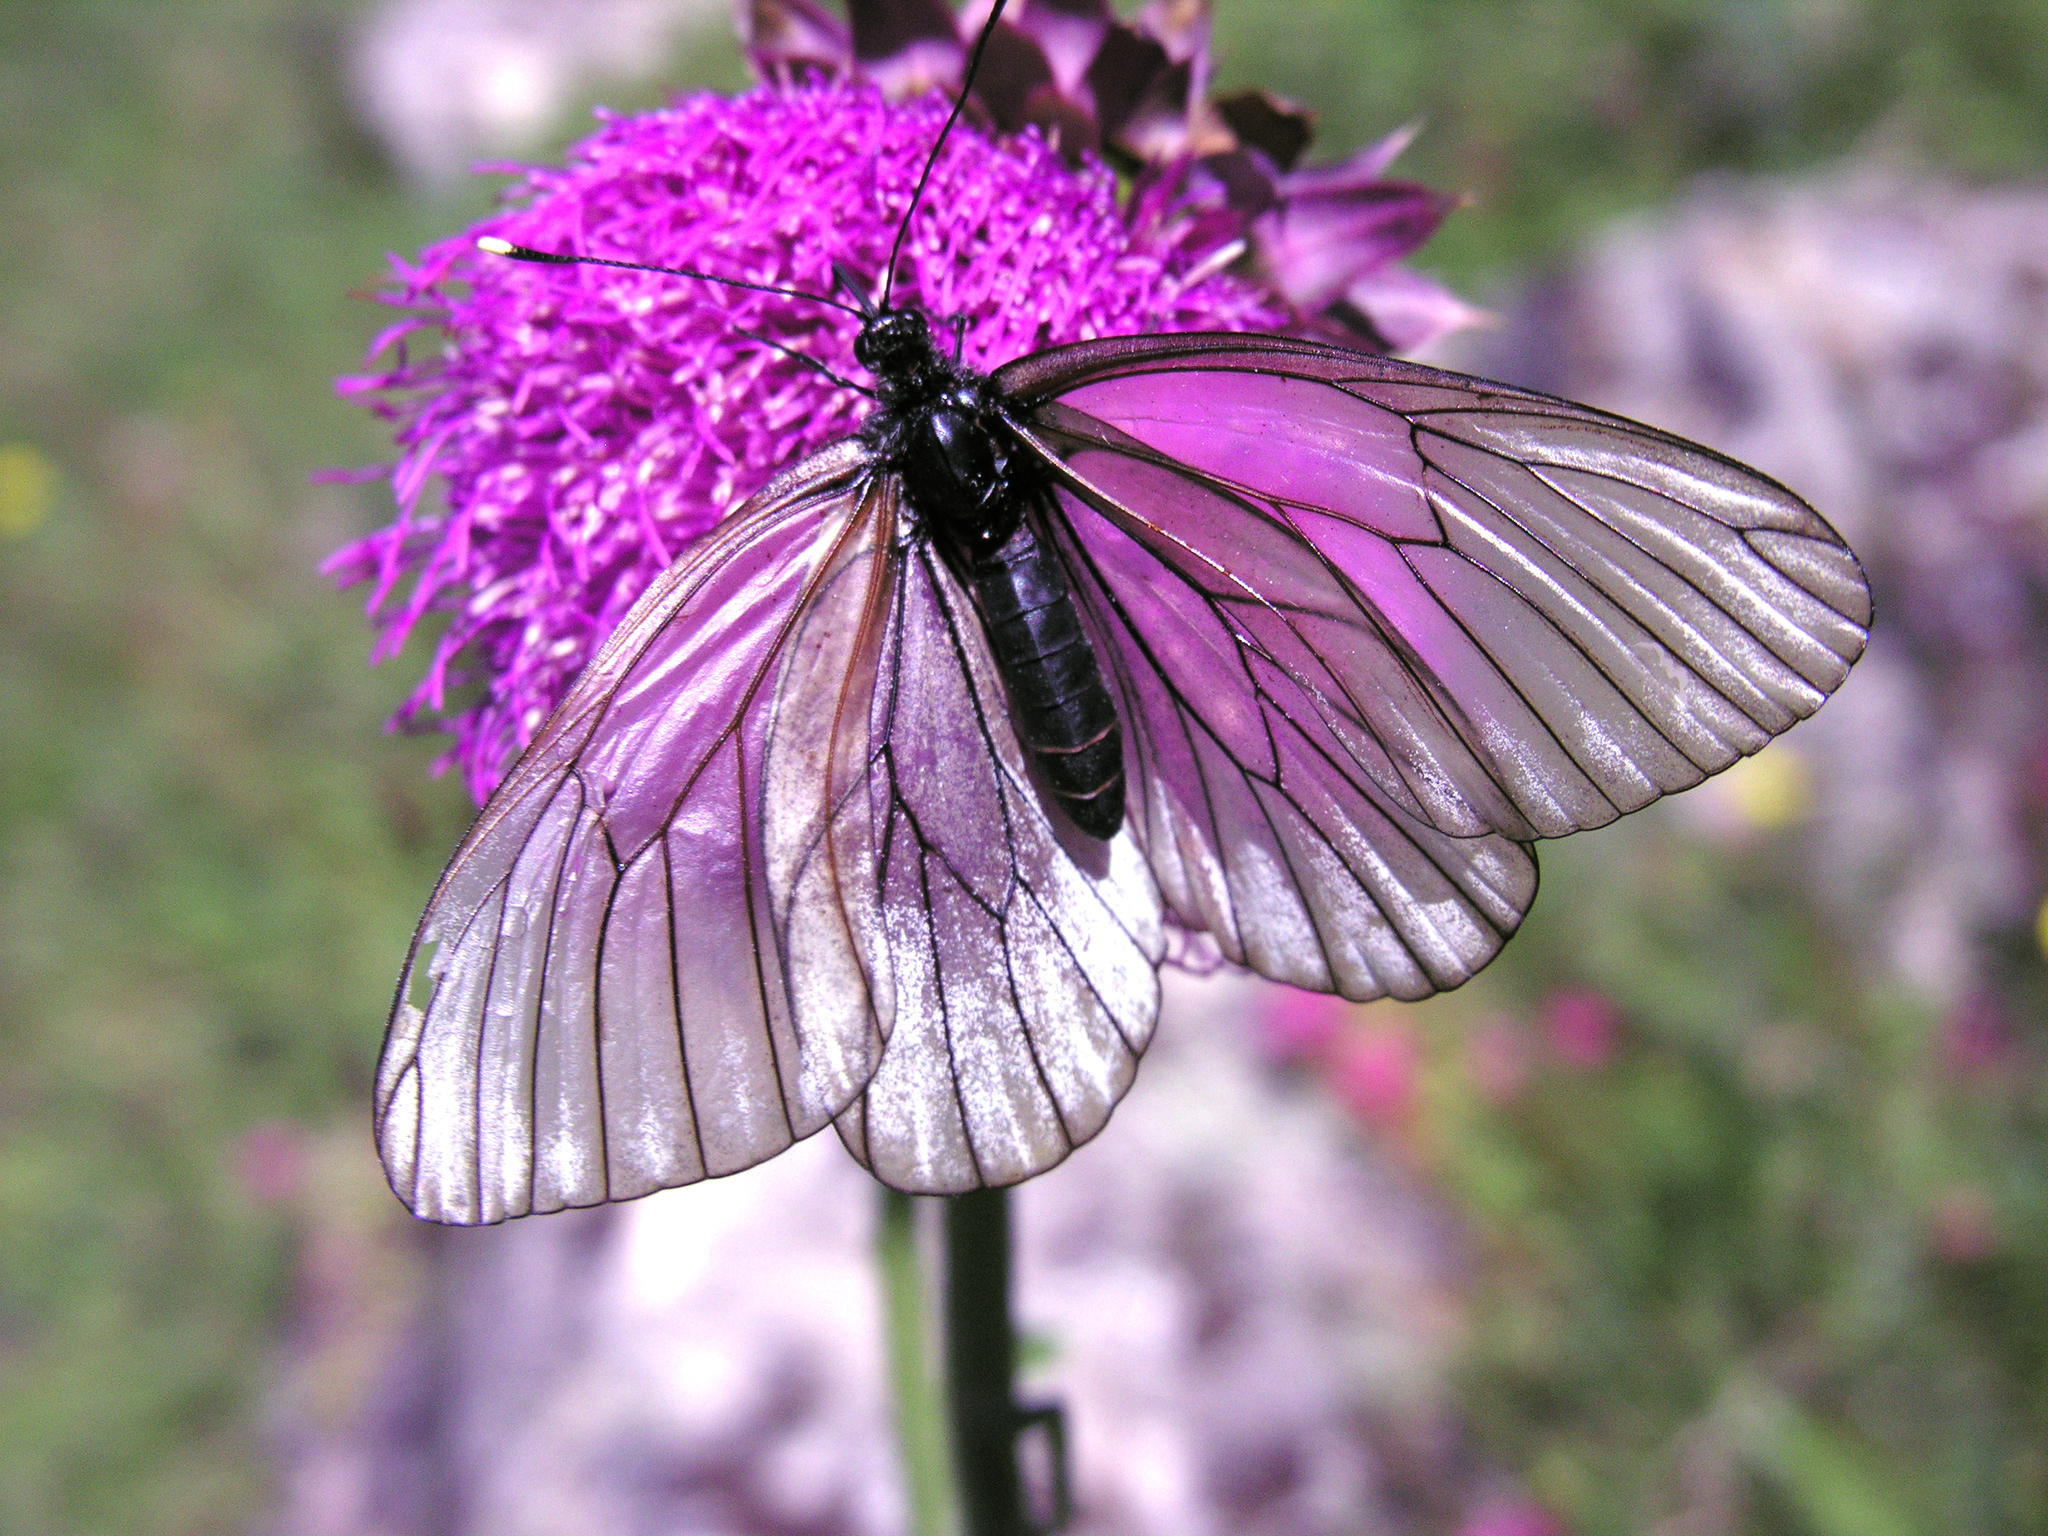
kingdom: Animalia
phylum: Arthropoda
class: Insecta
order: Lepidoptera
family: Pieridae
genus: Aporia
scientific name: Aporia crataegi
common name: Black-veined white
